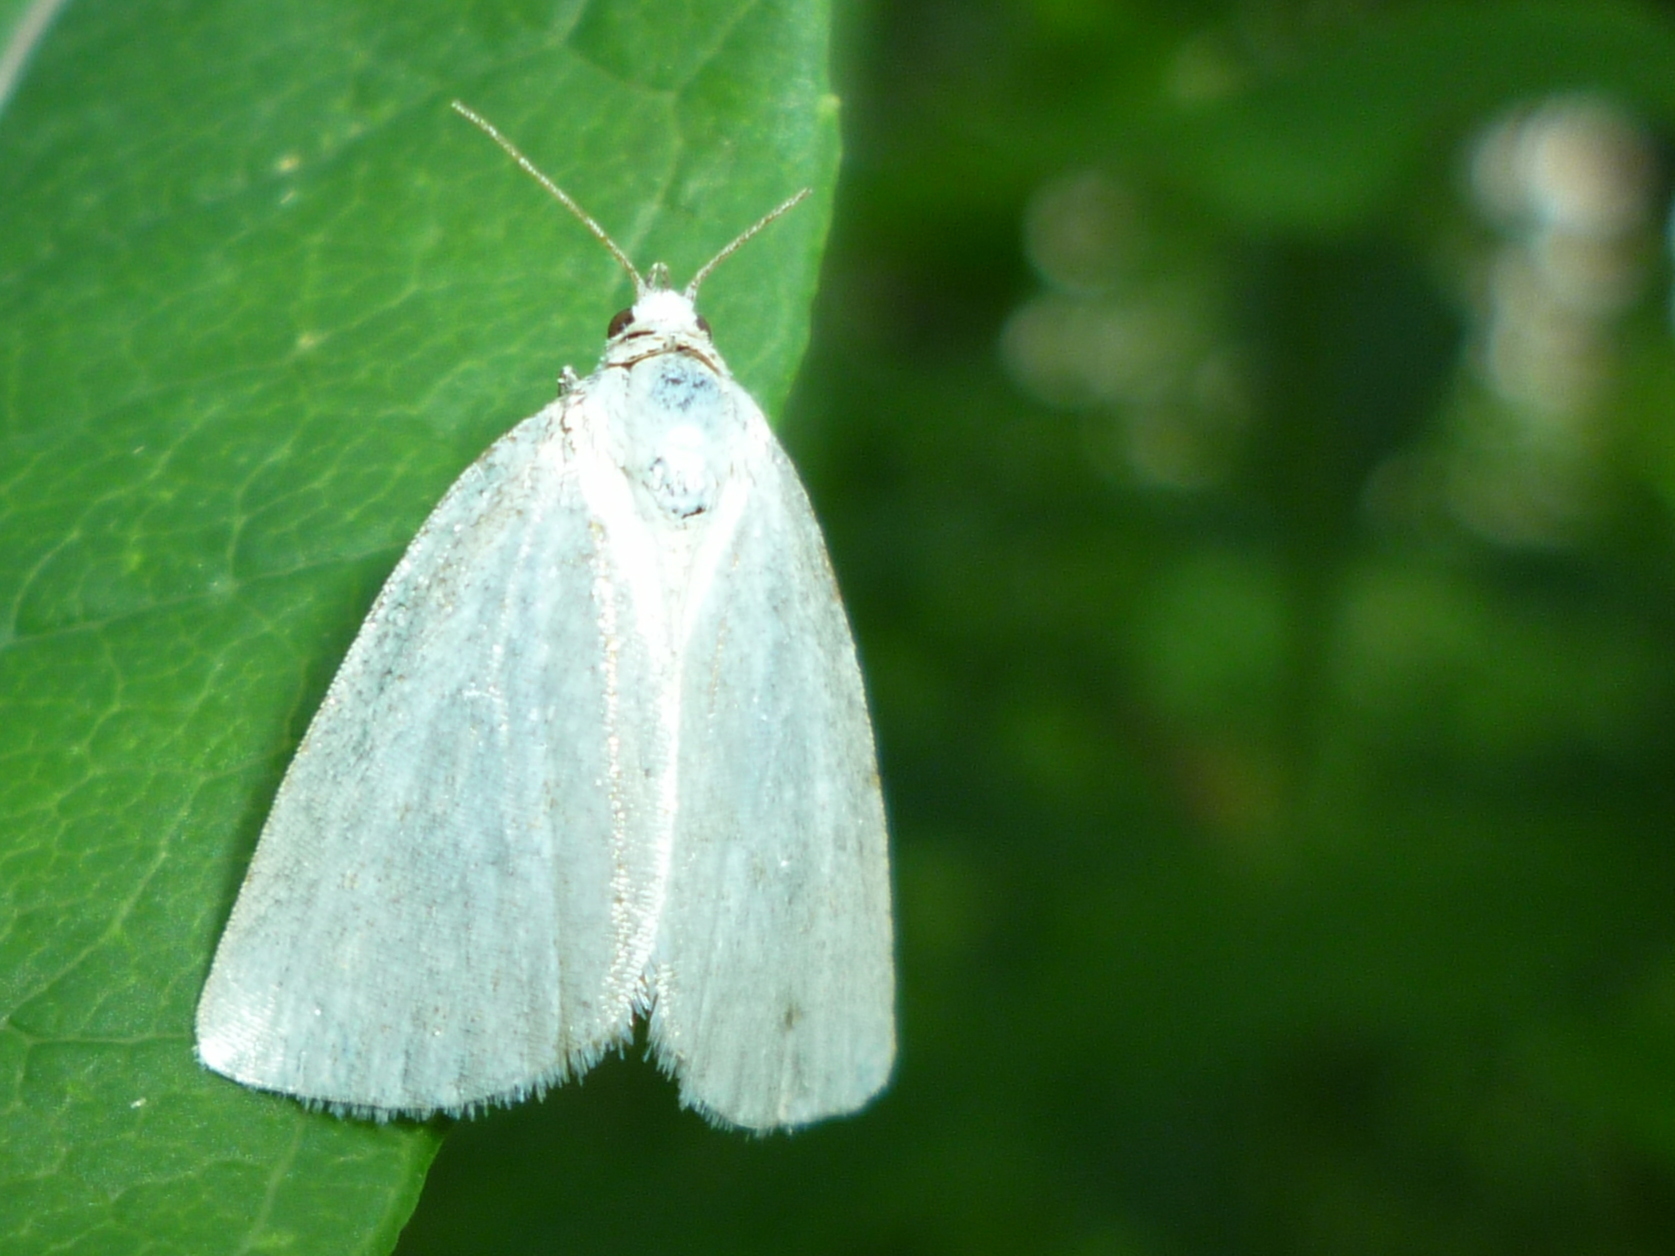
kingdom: Animalia
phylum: Arthropoda
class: Insecta
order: Lepidoptera
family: Noctuidae
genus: Protodeltote
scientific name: Protodeltote albidula
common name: Pale glyph
